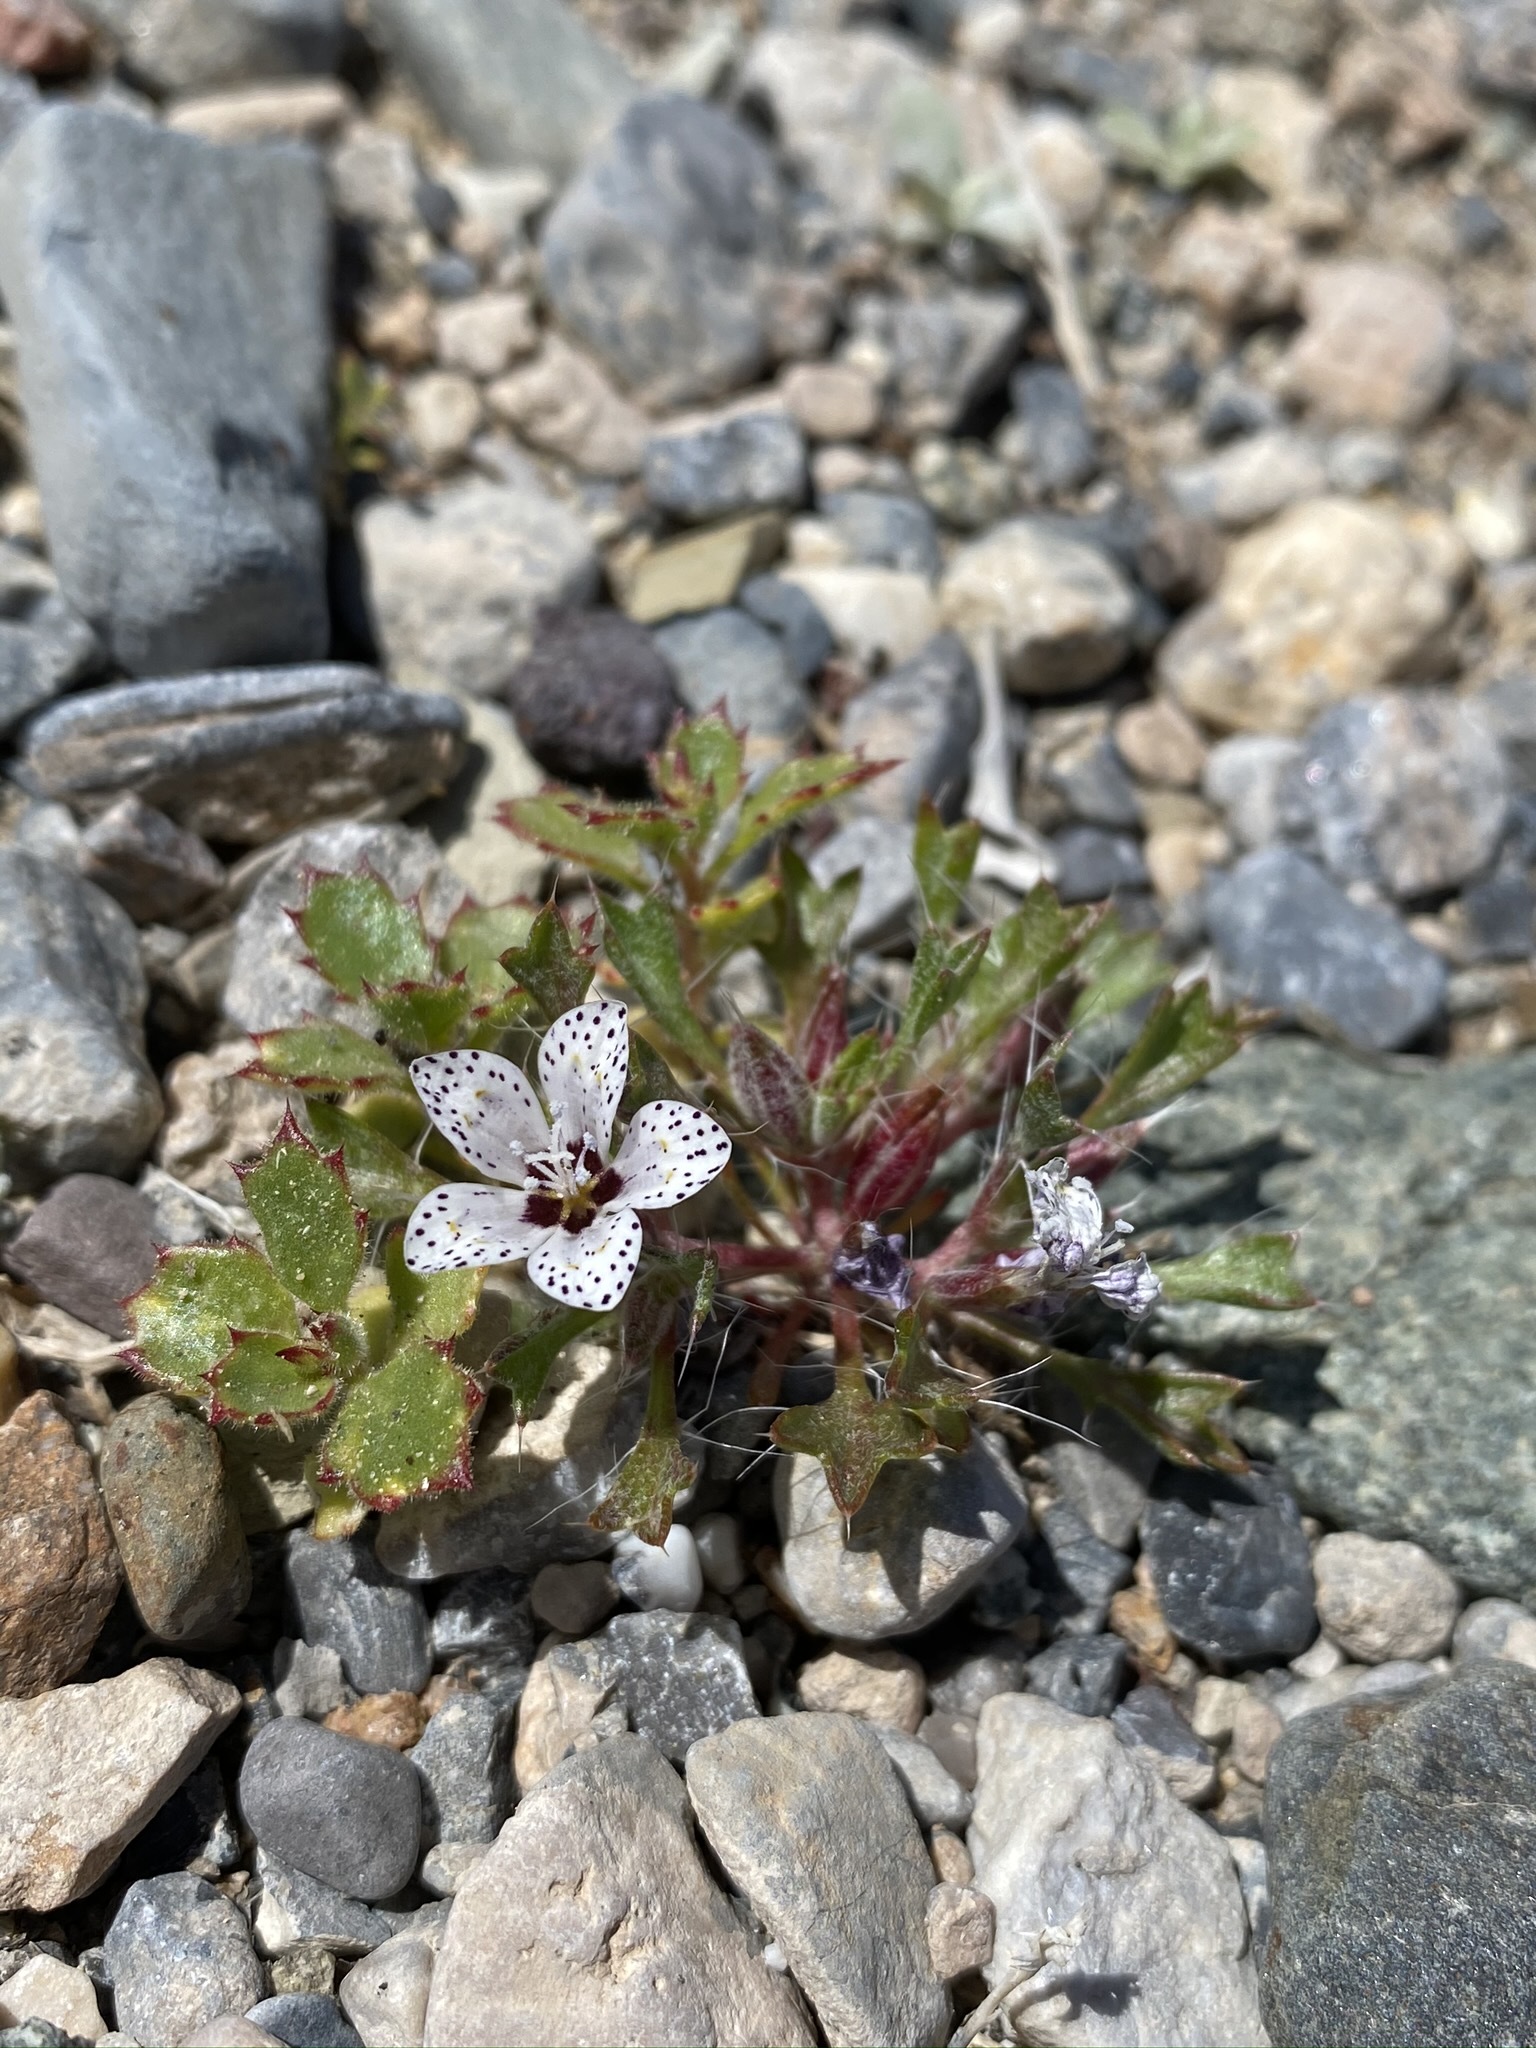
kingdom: Plantae
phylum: Tracheophyta
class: Magnoliopsida
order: Ericales
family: Polemoniaceae
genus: Langloisia
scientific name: Langloisia setosissima
